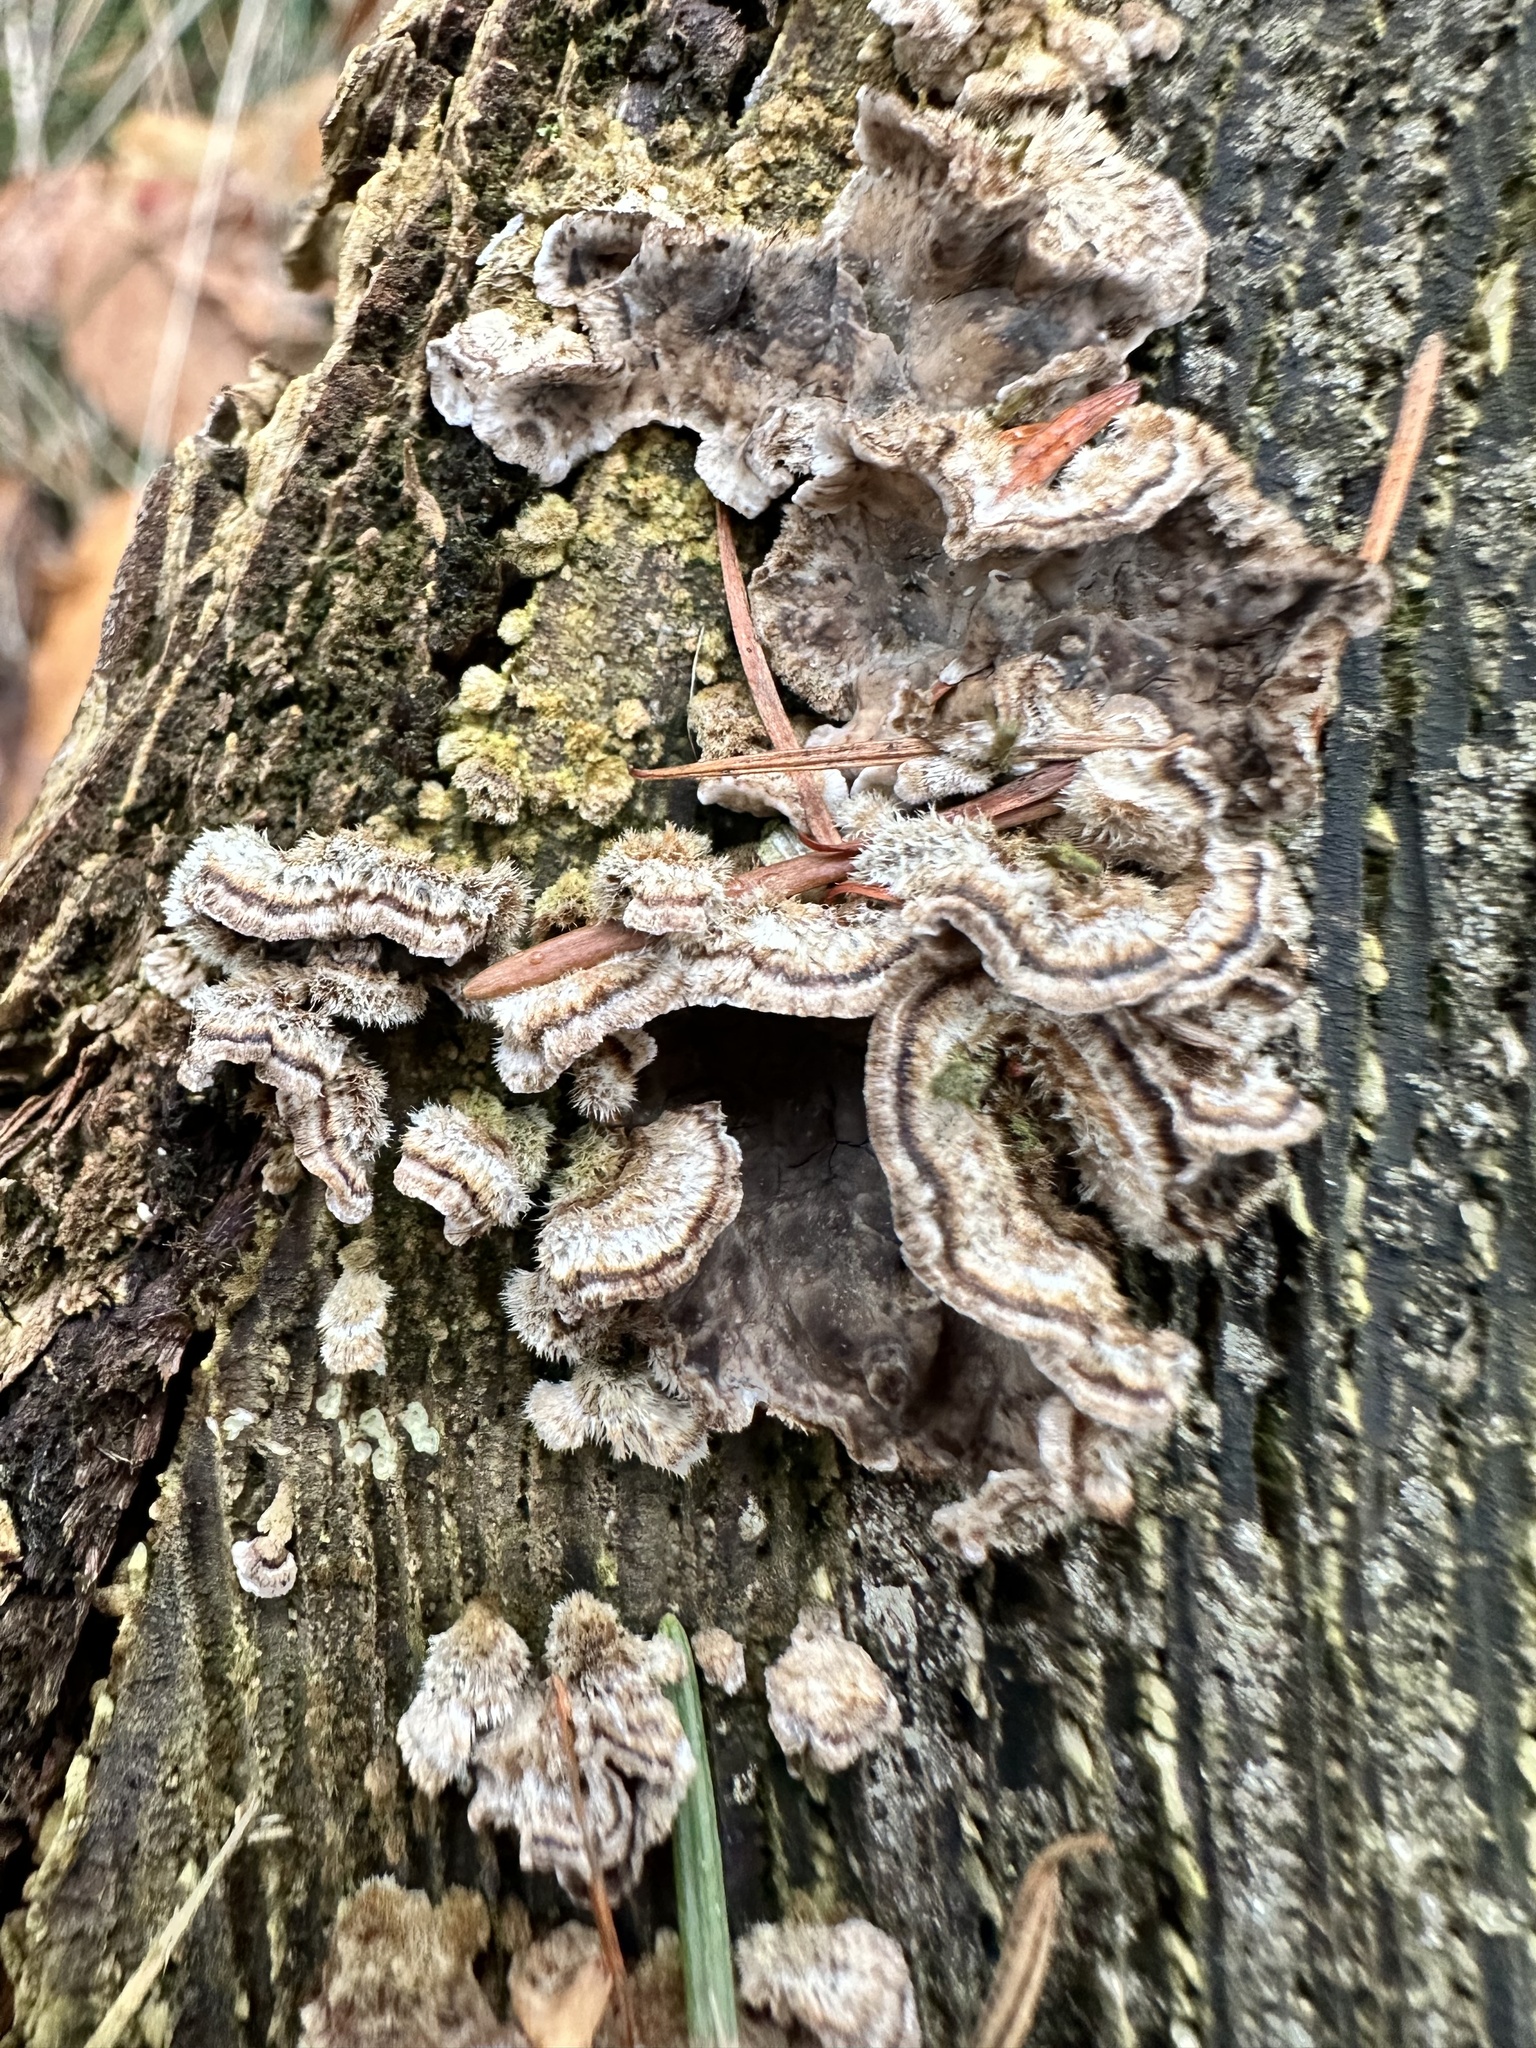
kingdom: Fungi
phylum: Basidiomycota
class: Agaricomycetes
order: Agaricales
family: Cyphellaceae
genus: Chondrostereum
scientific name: Chondrostereum purpureum
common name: Silver leaf disease
